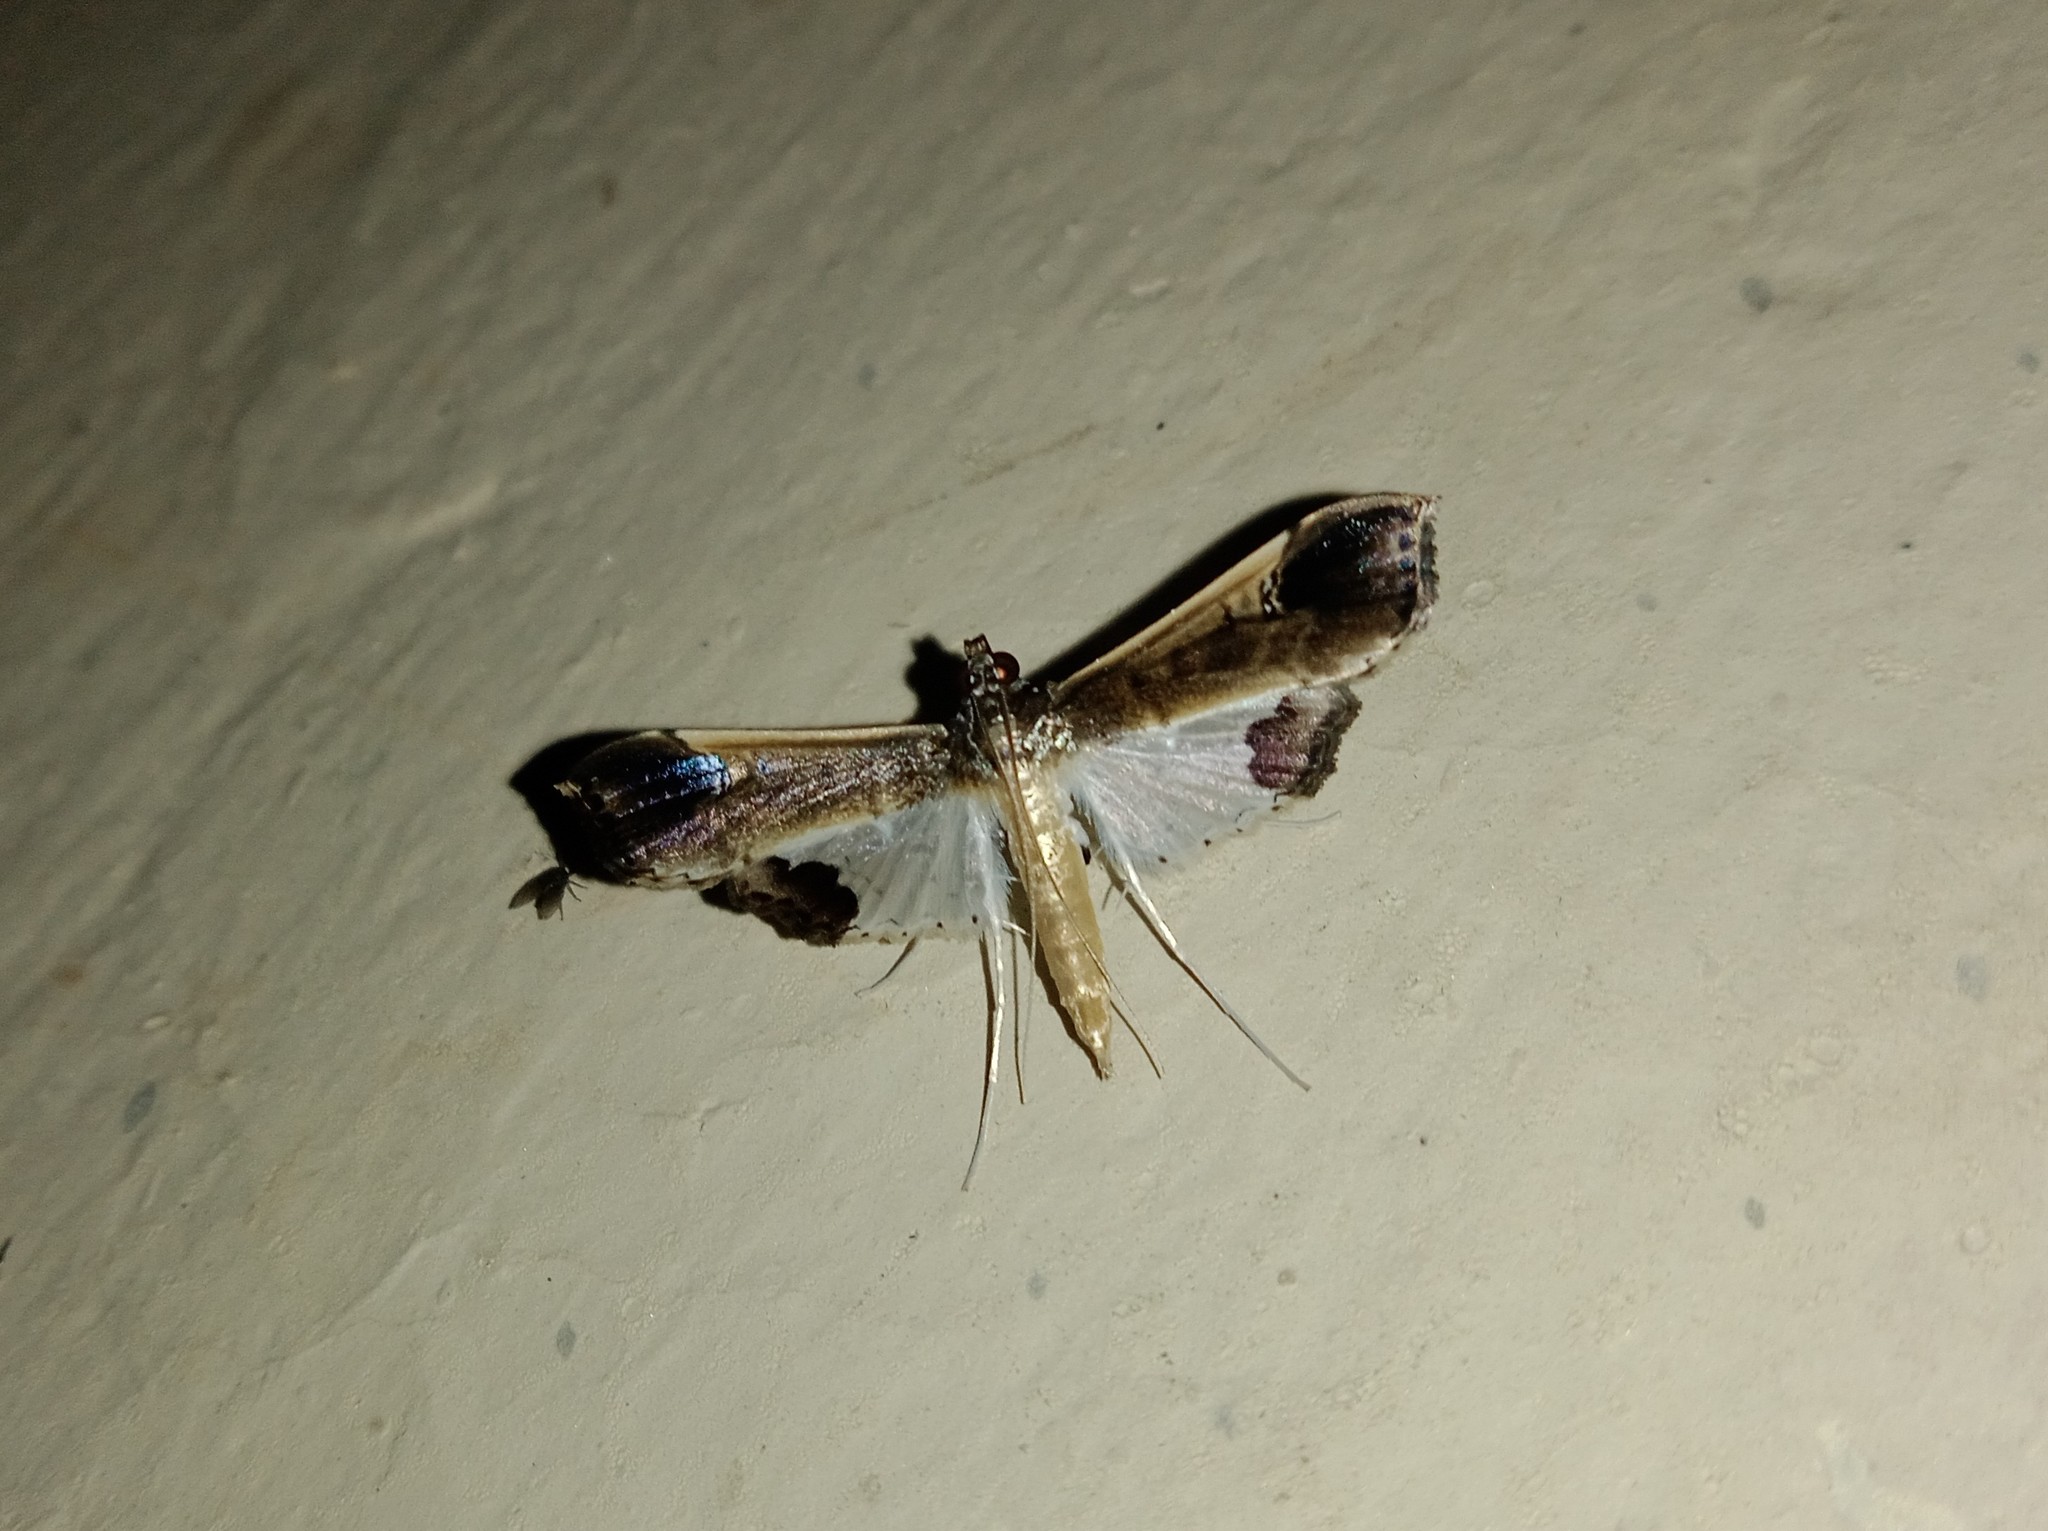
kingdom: Animalia
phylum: Arthropoda
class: Insecta
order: Lepidoptera
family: Crambidae
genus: Maruca
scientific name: Maruca amboinalis
